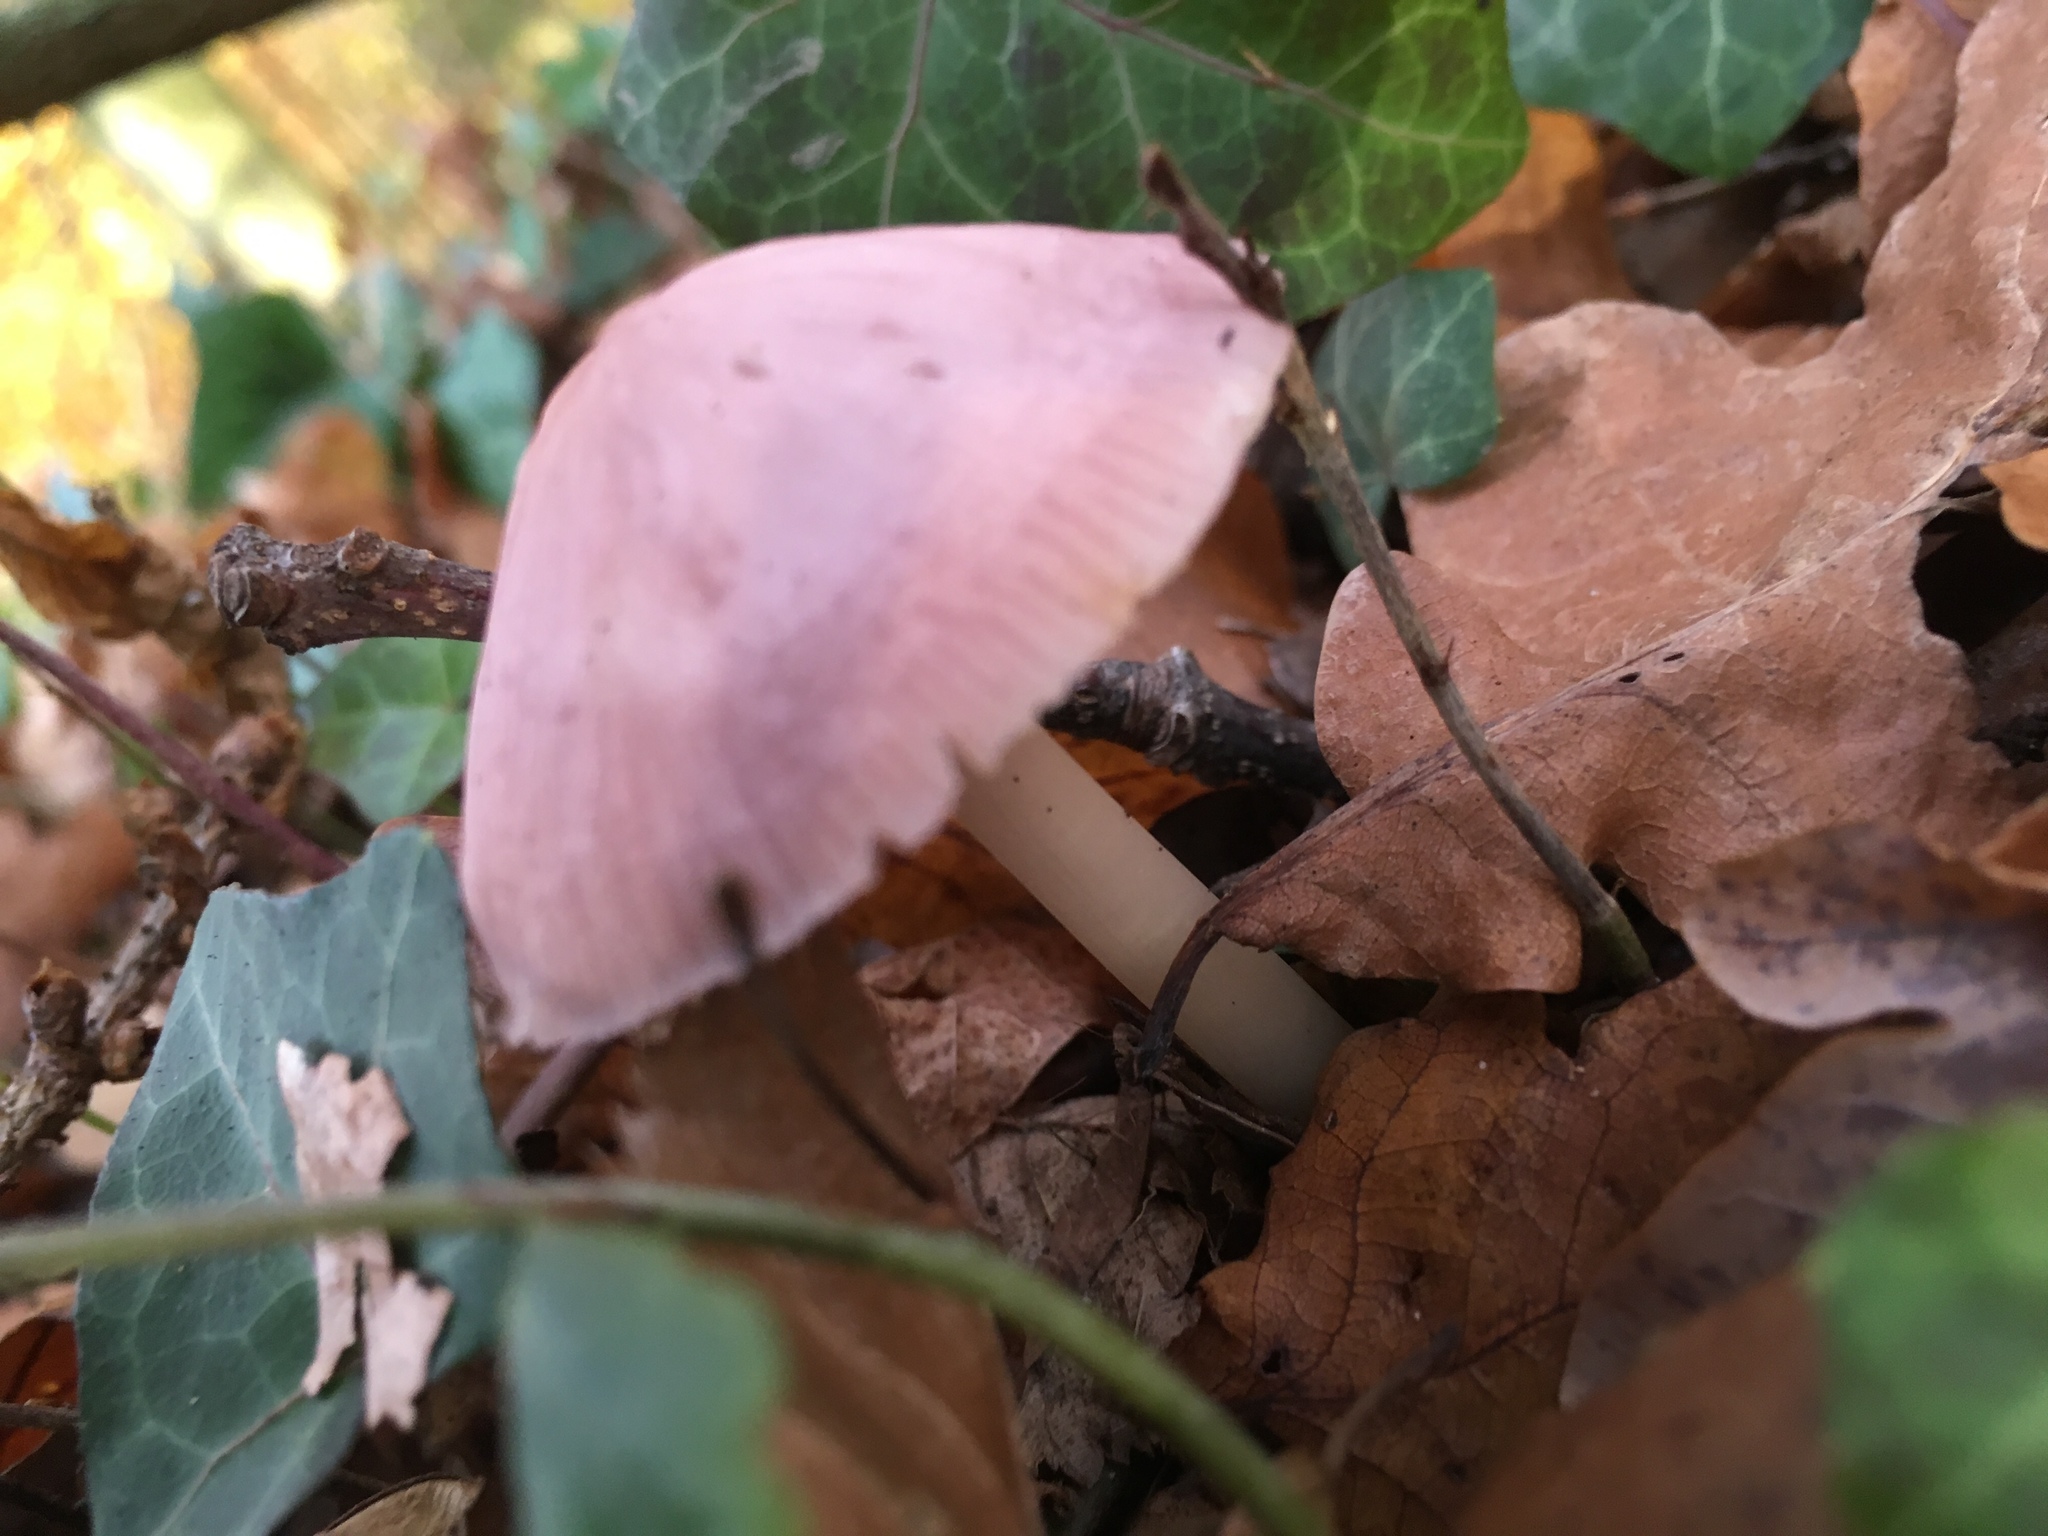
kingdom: Fungi
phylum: Basidiomycota
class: Agaricomycetes
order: Agaricales
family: Mycenaceae
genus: Mycena
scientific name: Mycena rosea
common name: Rosy bonnet
